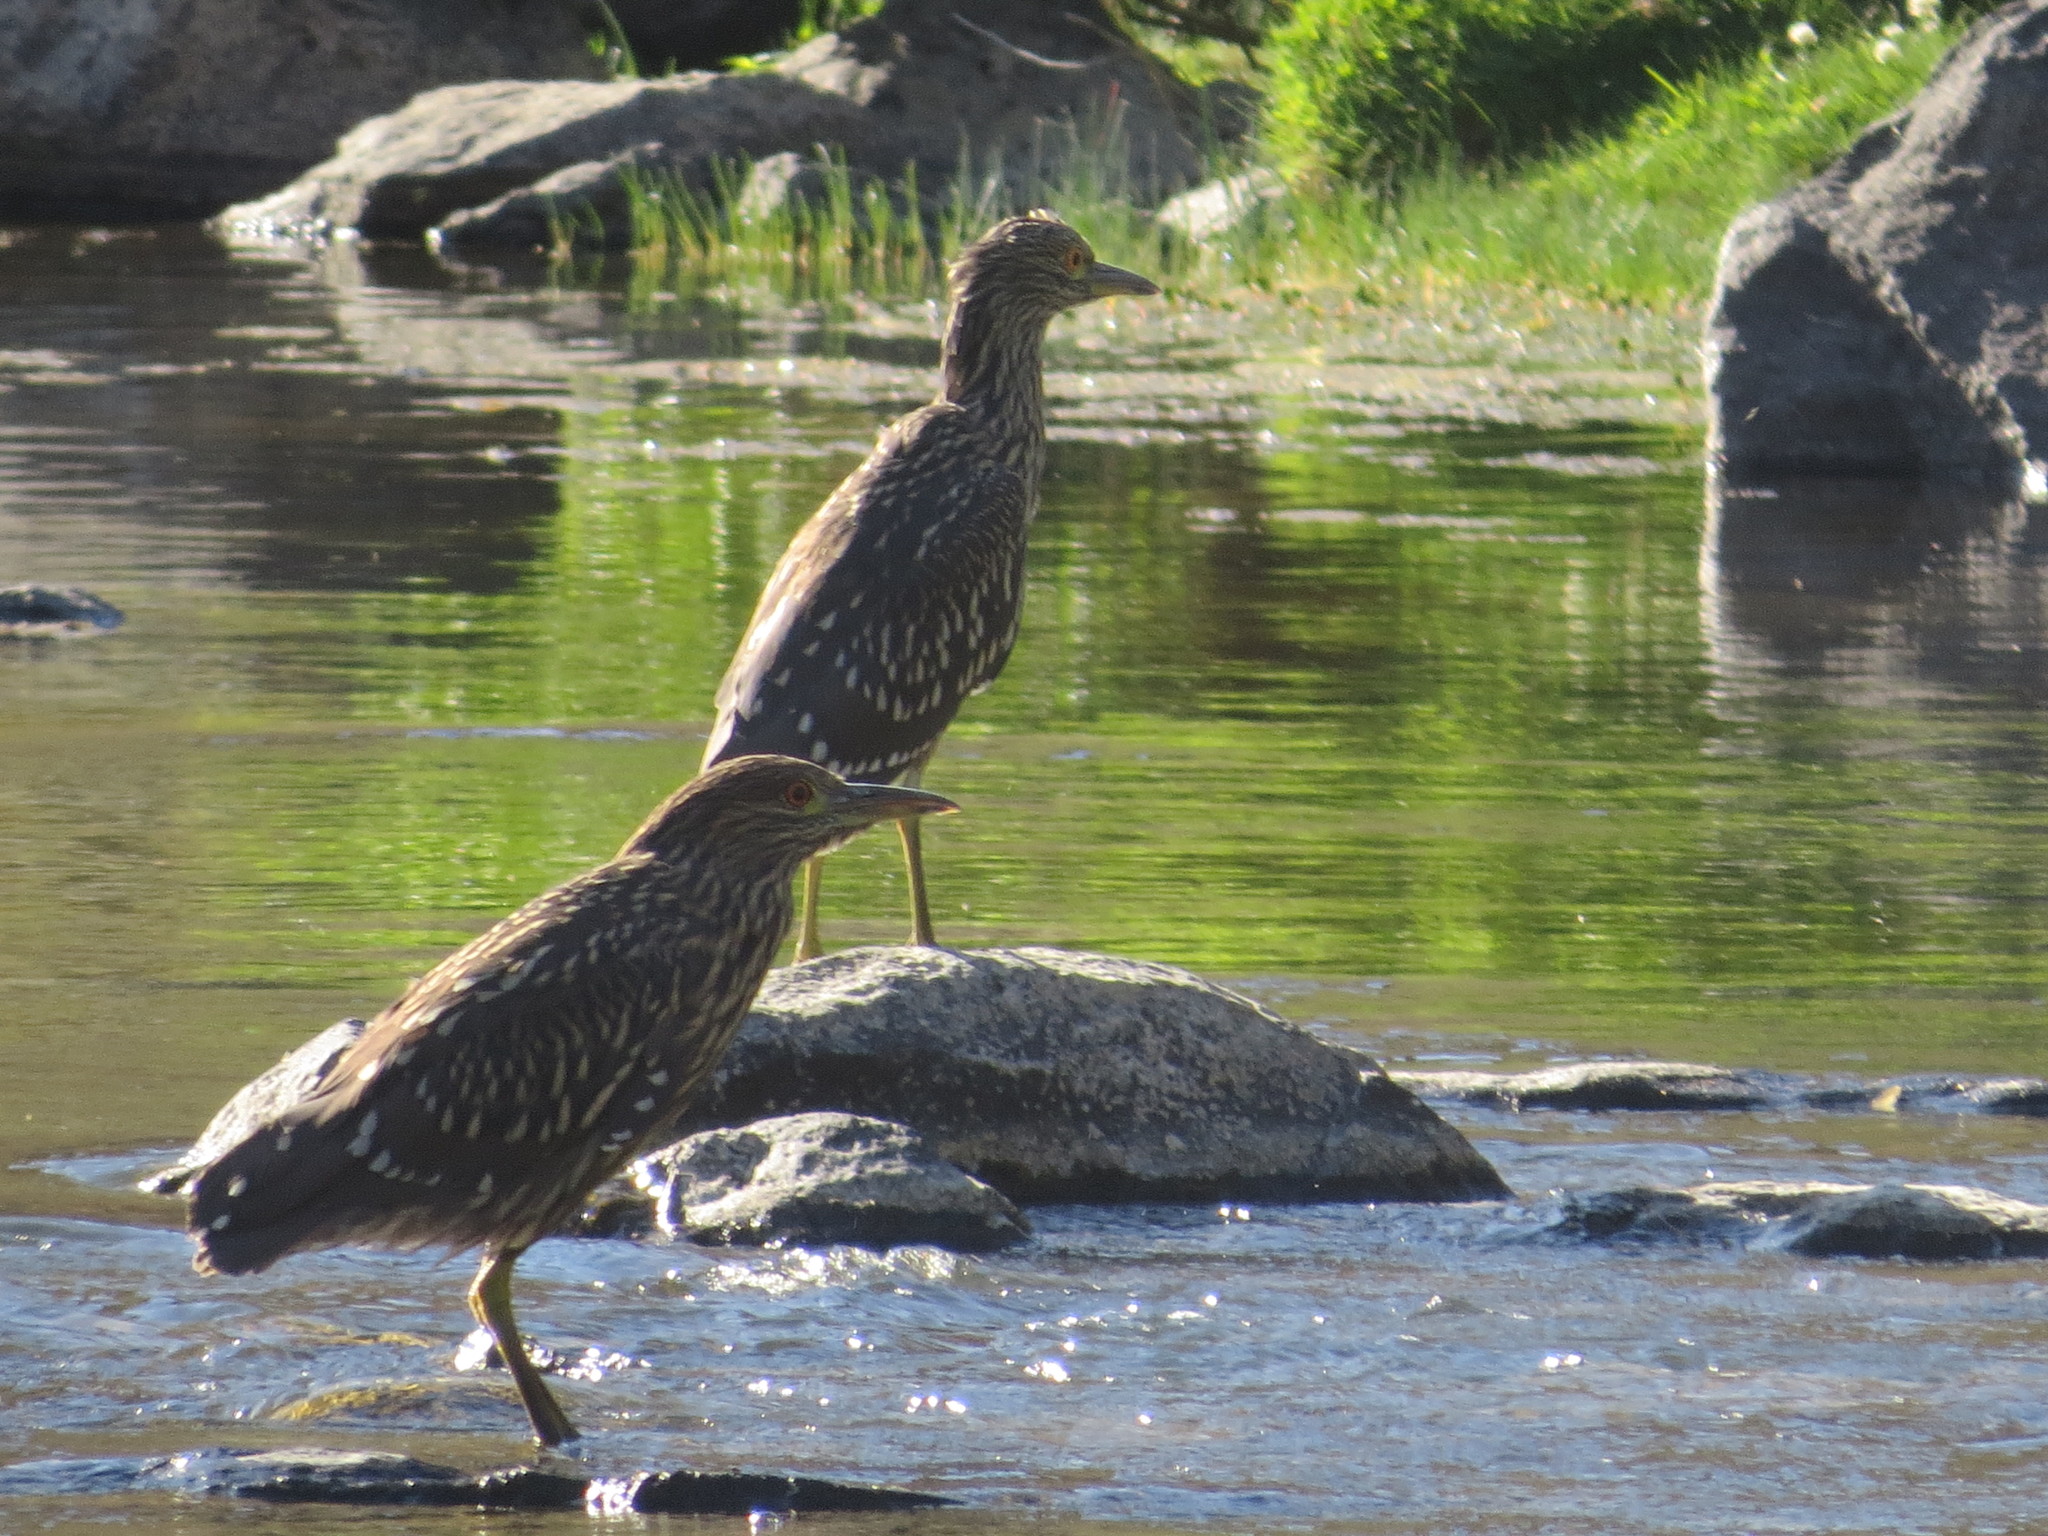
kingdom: Animalia
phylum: Chordata
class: Aves
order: Pelecaniformes
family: Ardeidae
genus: Nycticorax
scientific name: Nycticorax nycticorax
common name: Black-crowned night heron
